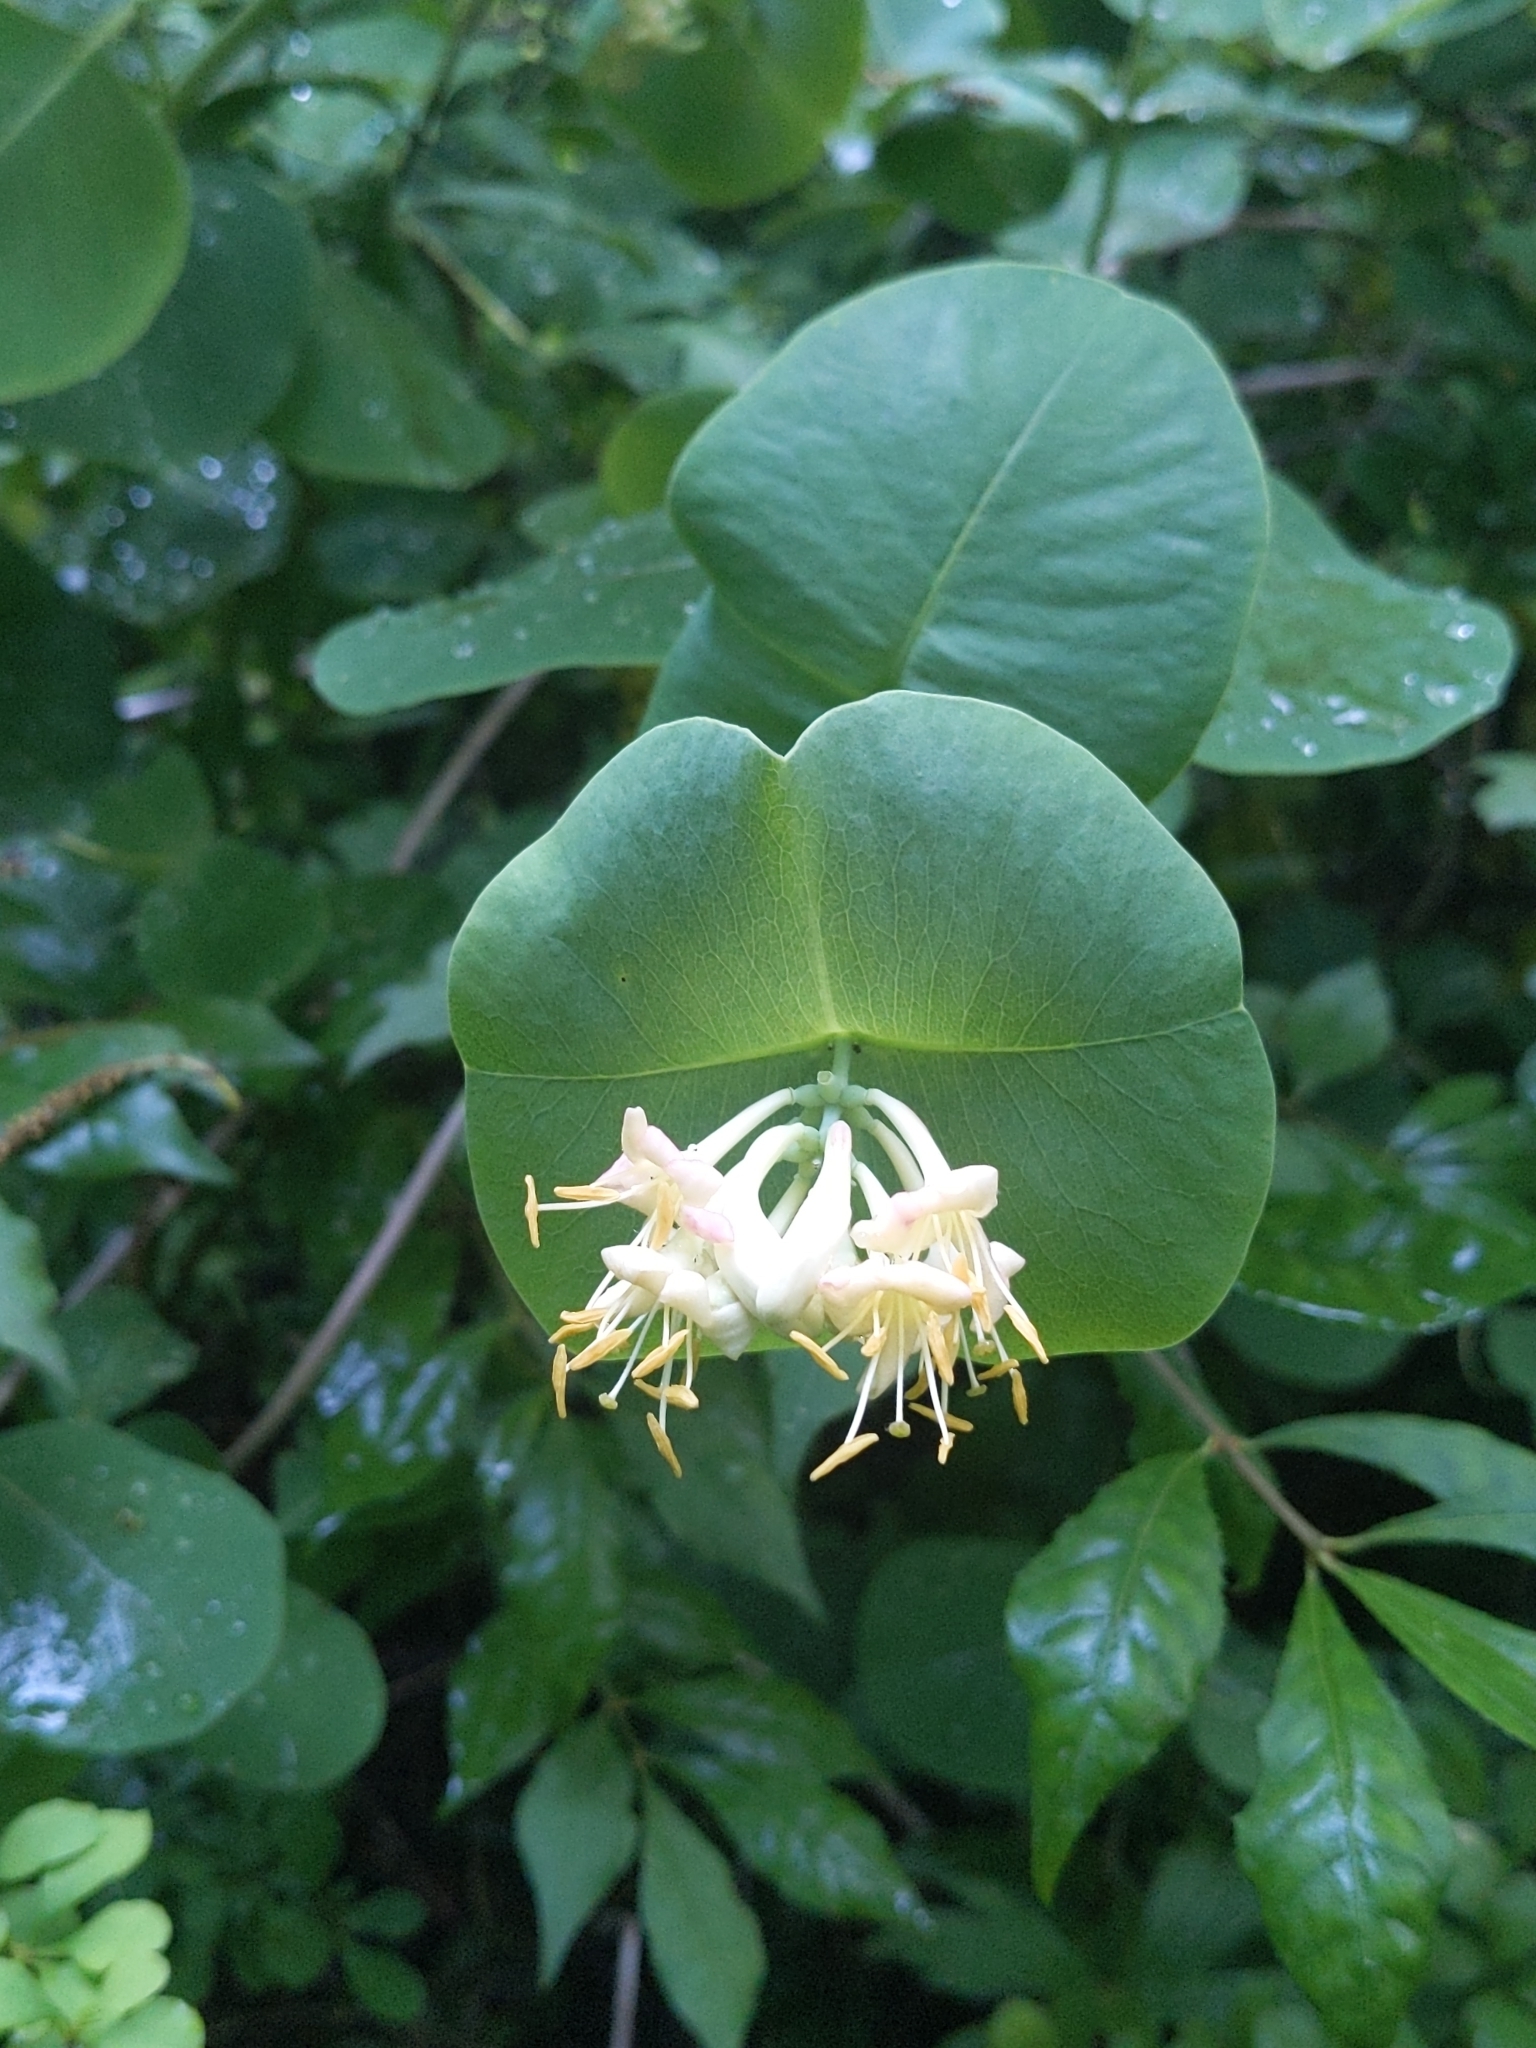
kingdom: Plantae
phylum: Tracheophyta
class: Magnoliopsida
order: Dipsacales
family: Caprifoliaceae
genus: Lonicera
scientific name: Lonicera reticulata
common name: Grape honeysuckle
